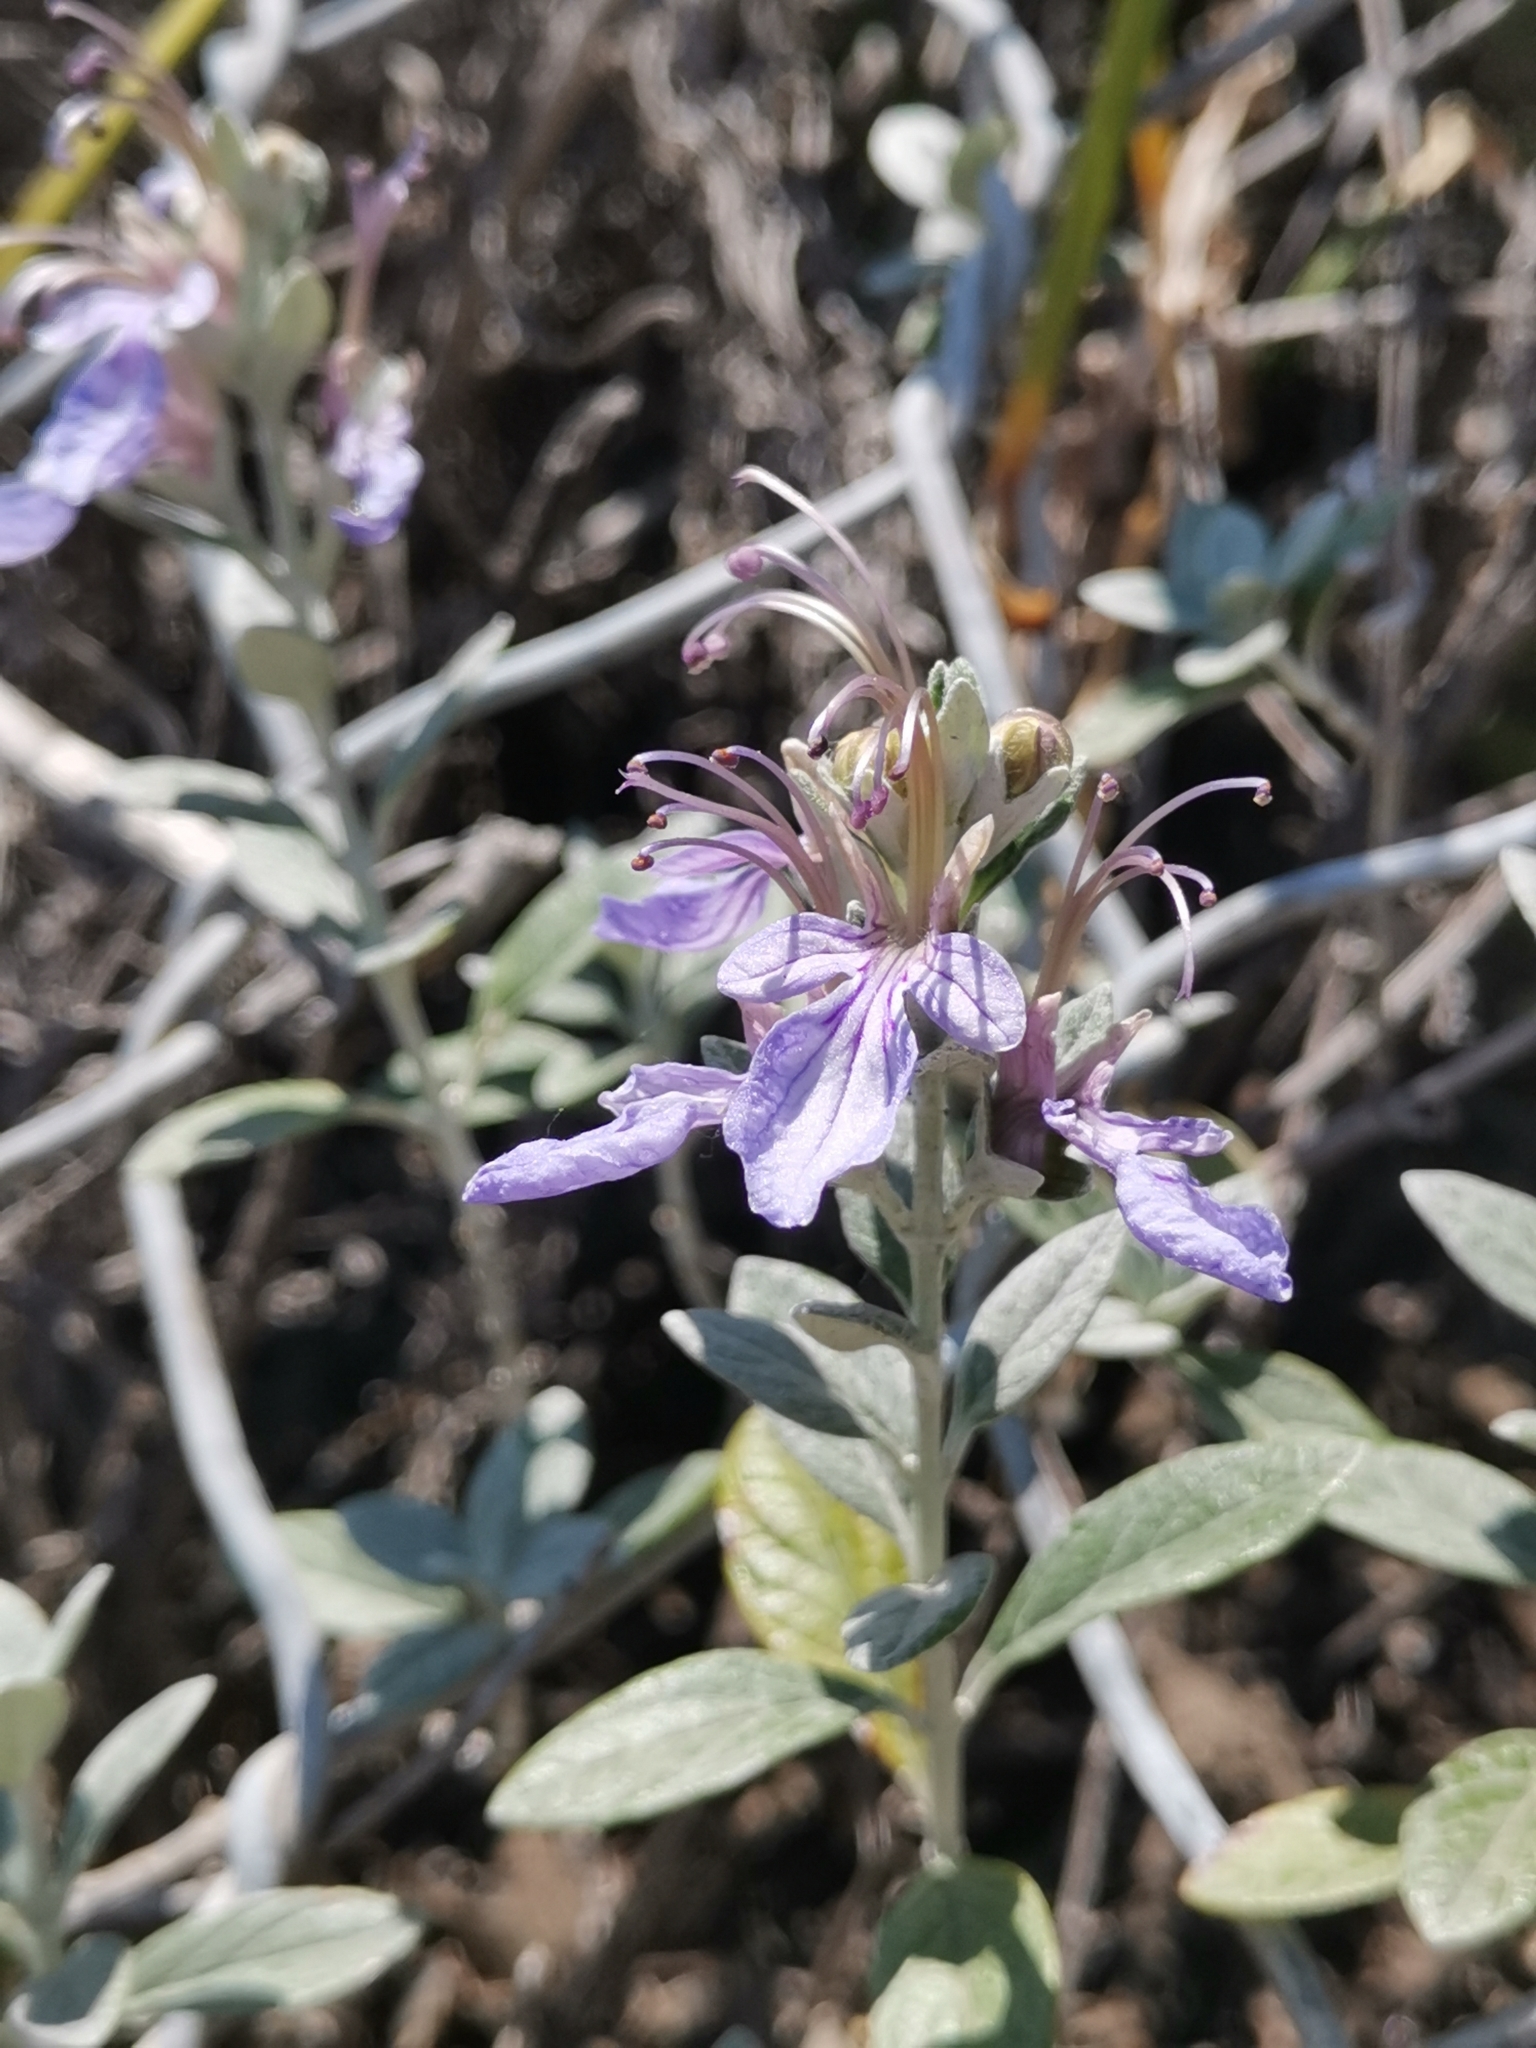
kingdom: Plantae
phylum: Tracheophyta
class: Magnoliopsida
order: Lamiales
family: Lamiaceae
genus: Teucrium
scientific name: Teucrium fruticans
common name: Shrubby germander
